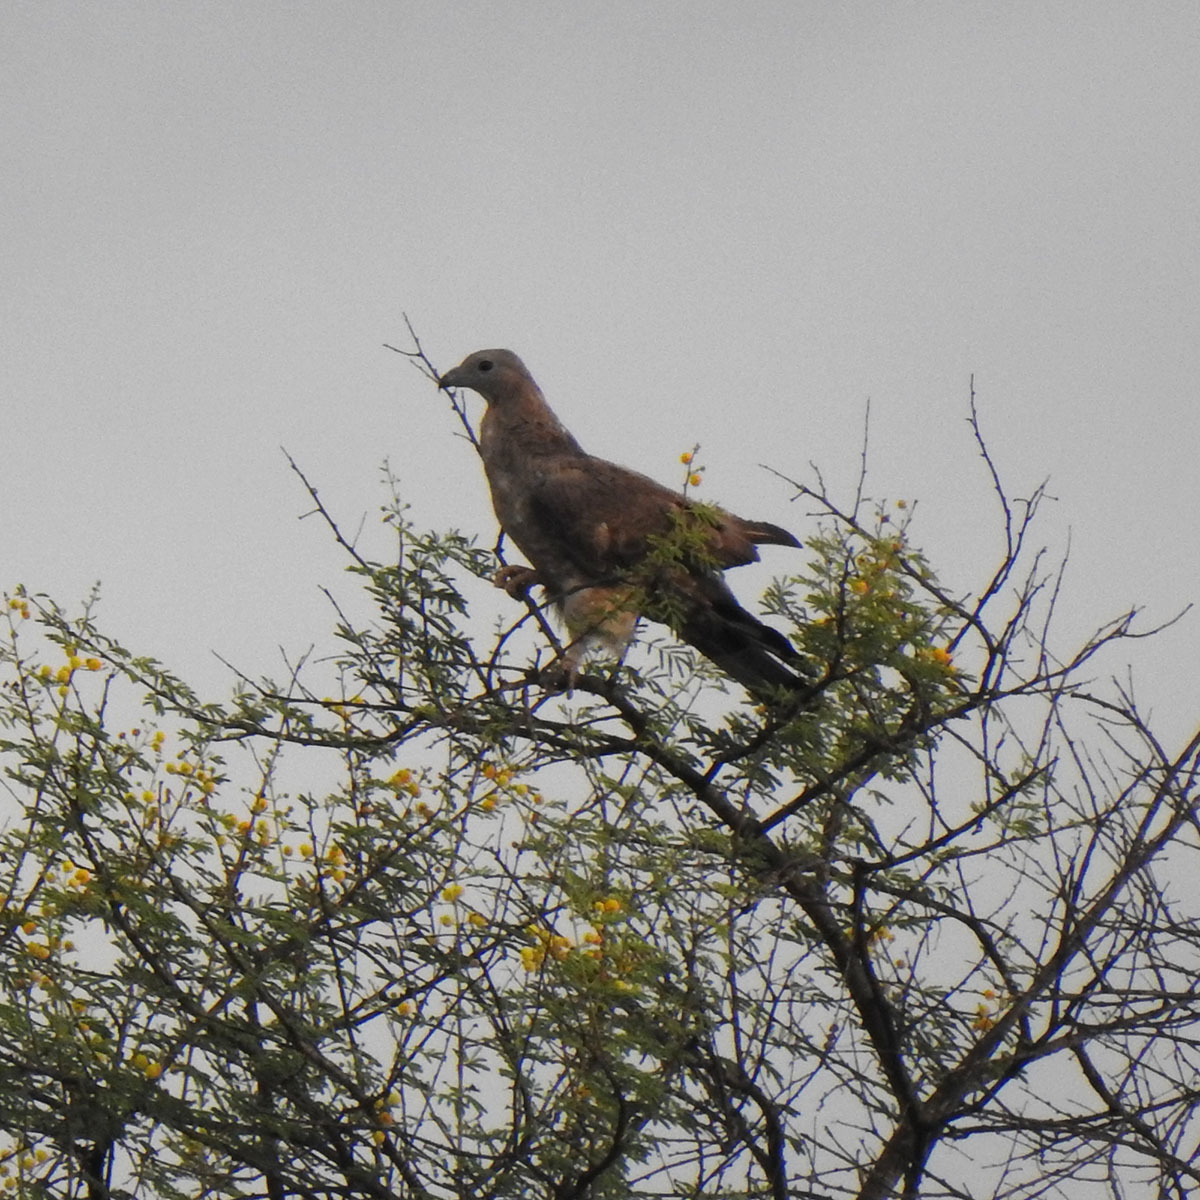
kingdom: Animalia
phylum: Chordata
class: Aves
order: Accipitriformes
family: Accipitridae
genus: Pernis
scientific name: Pernis ptilorhynchus
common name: Crested honey buzzard
